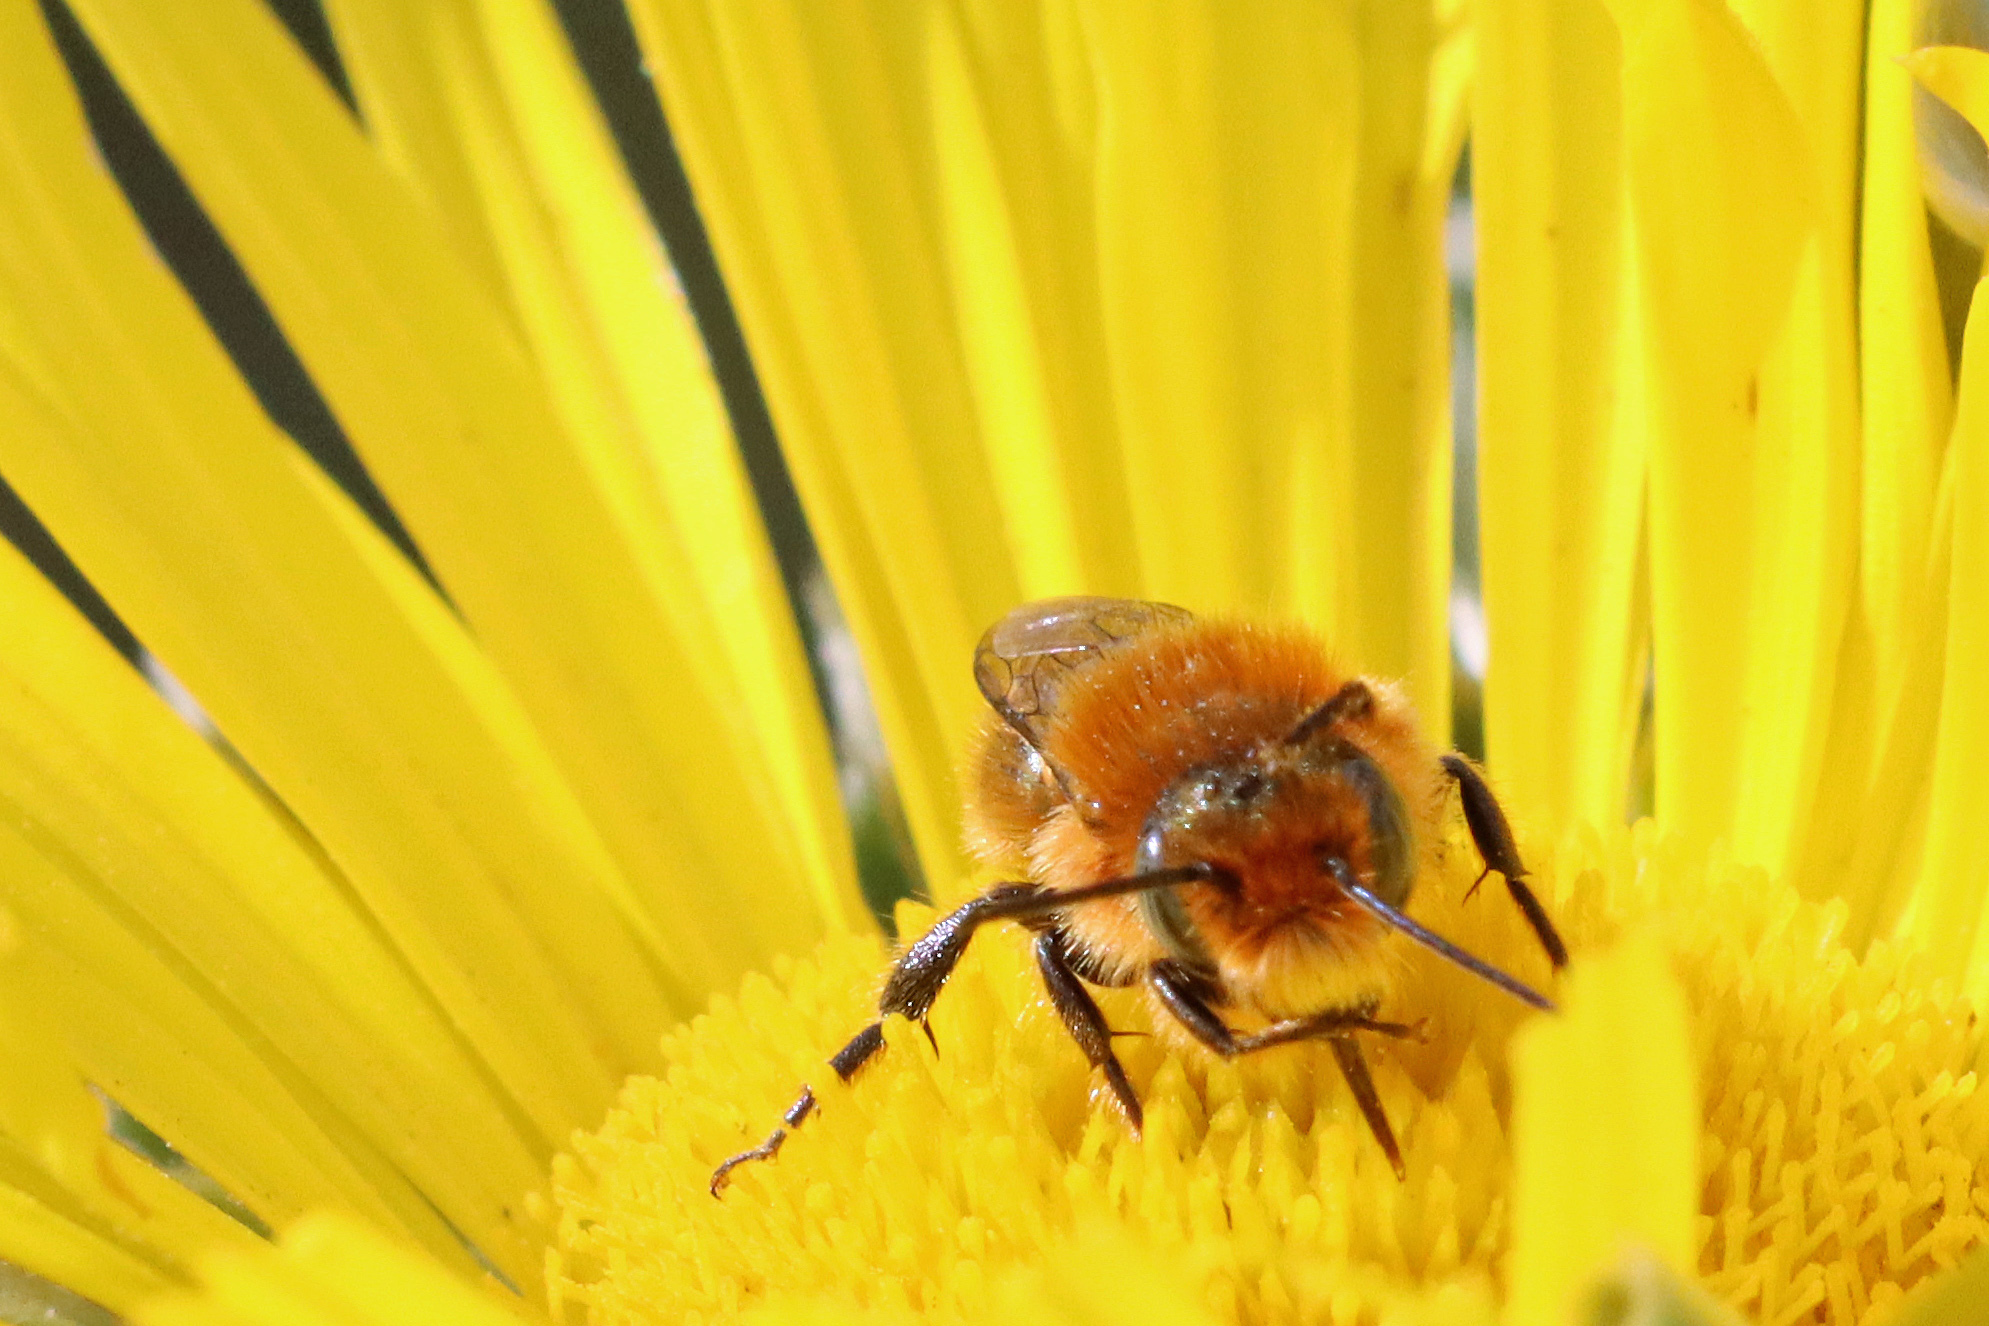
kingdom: Animalia
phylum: Arthropoda
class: Insecta
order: Hymenoptera
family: Megachilidae
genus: Osmia
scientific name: Osmia latreillei
